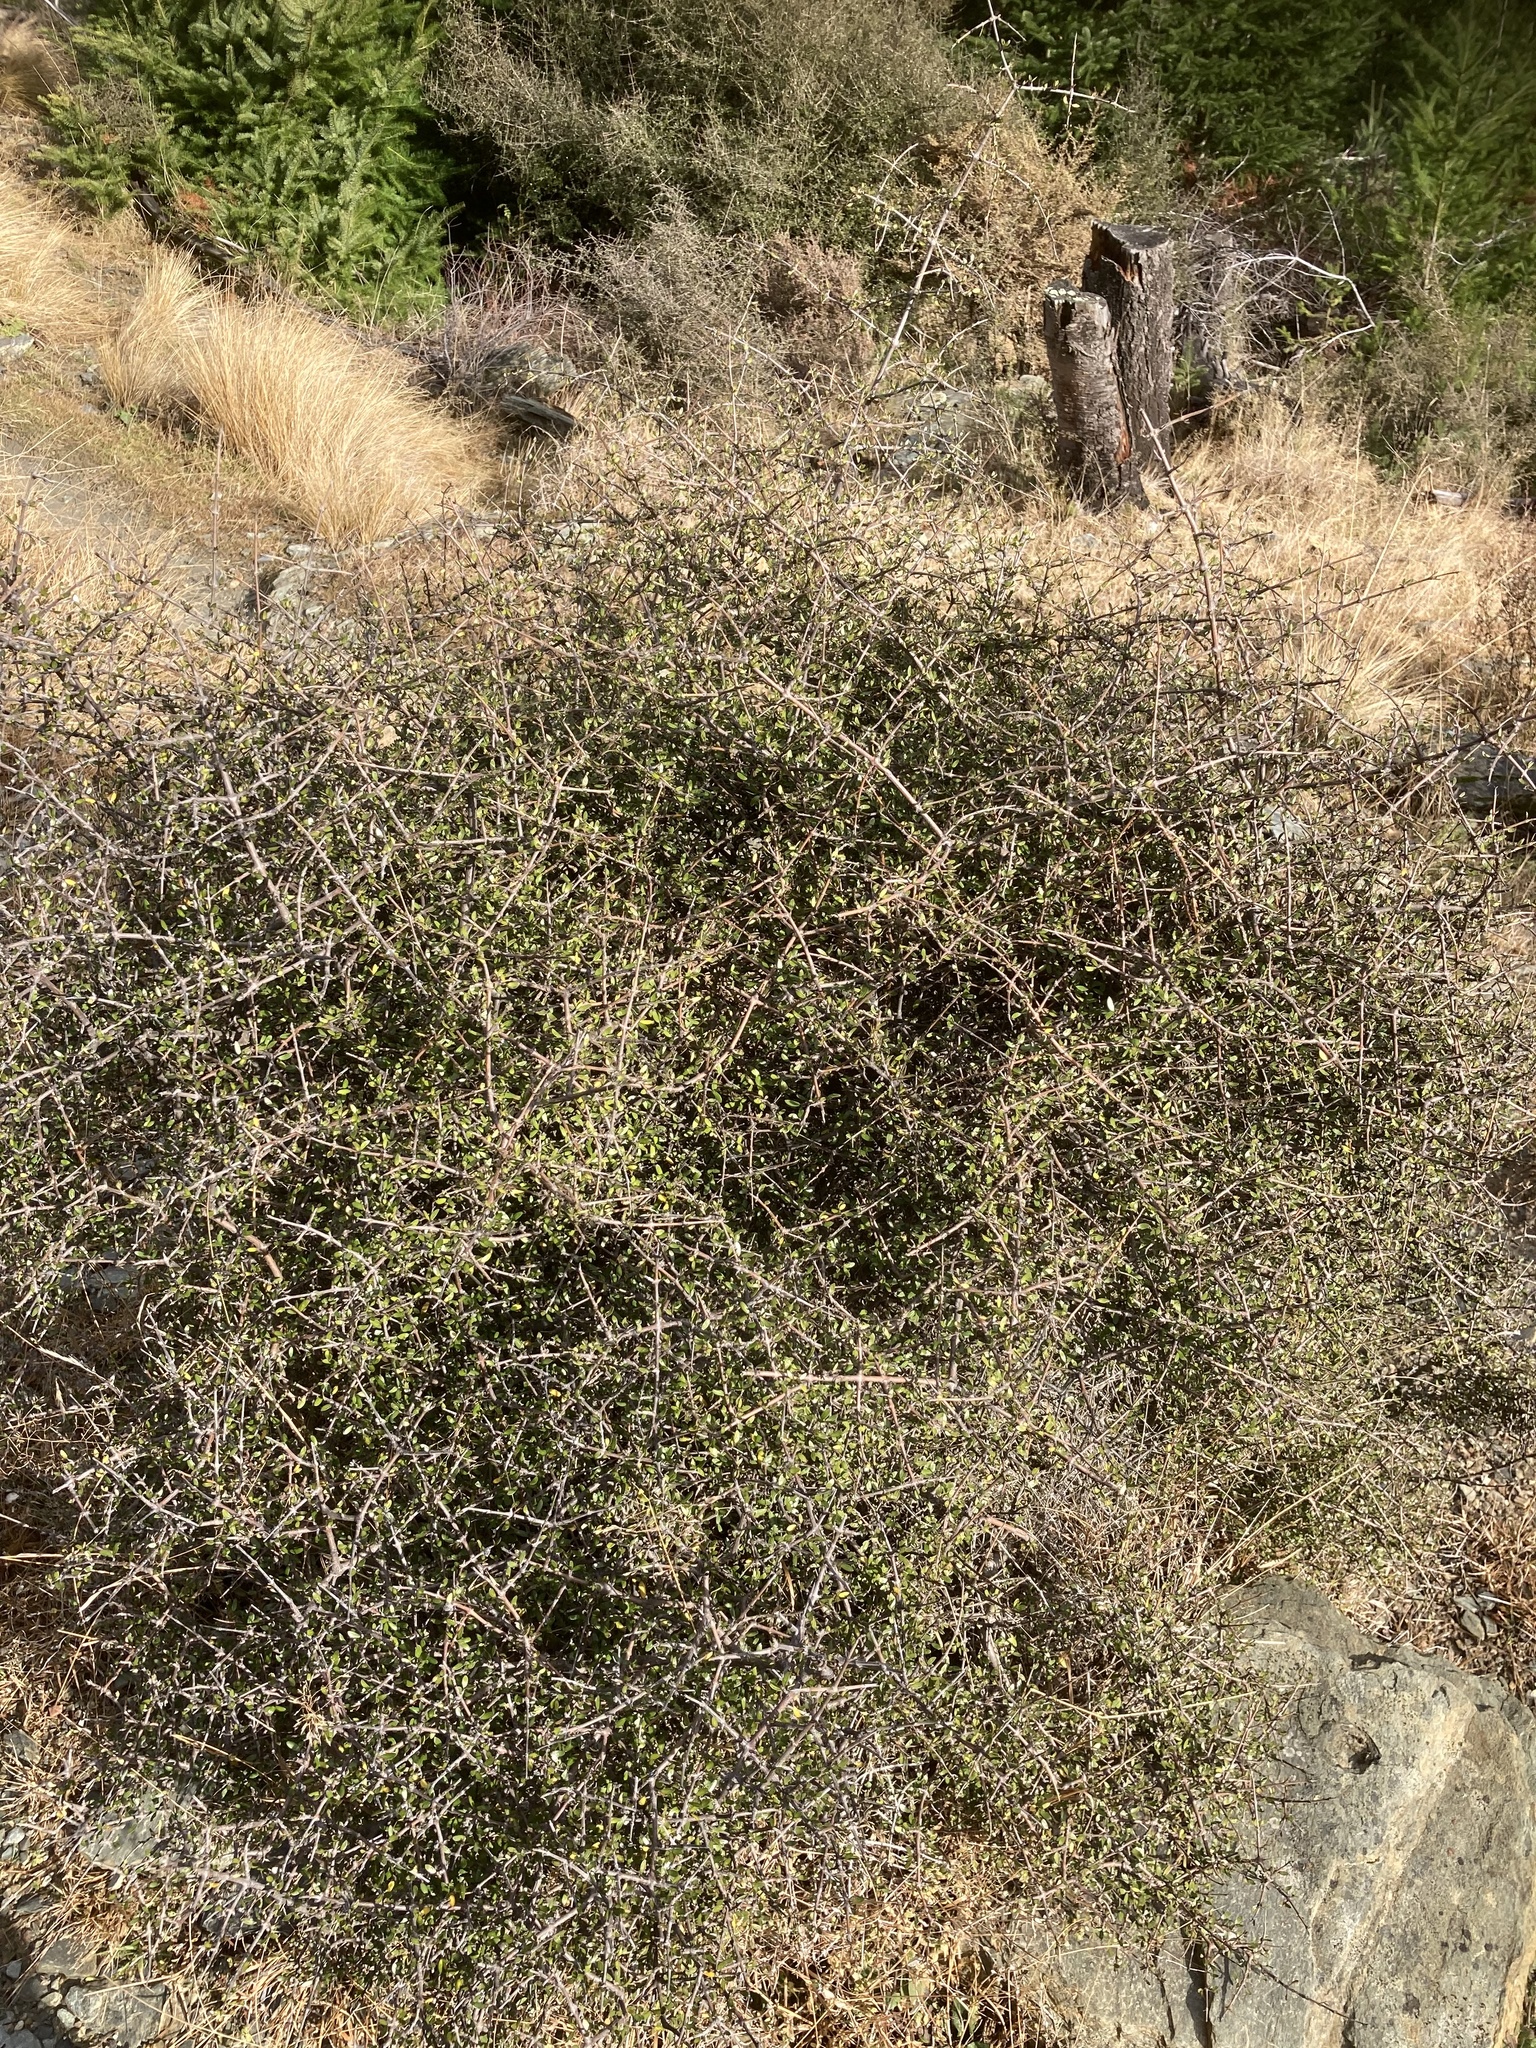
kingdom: Plantae
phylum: Tracheophyta
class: Magnoliopsida
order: Gentianales
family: Rubiaceae
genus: Coprosma
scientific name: Coprosma propinqua
